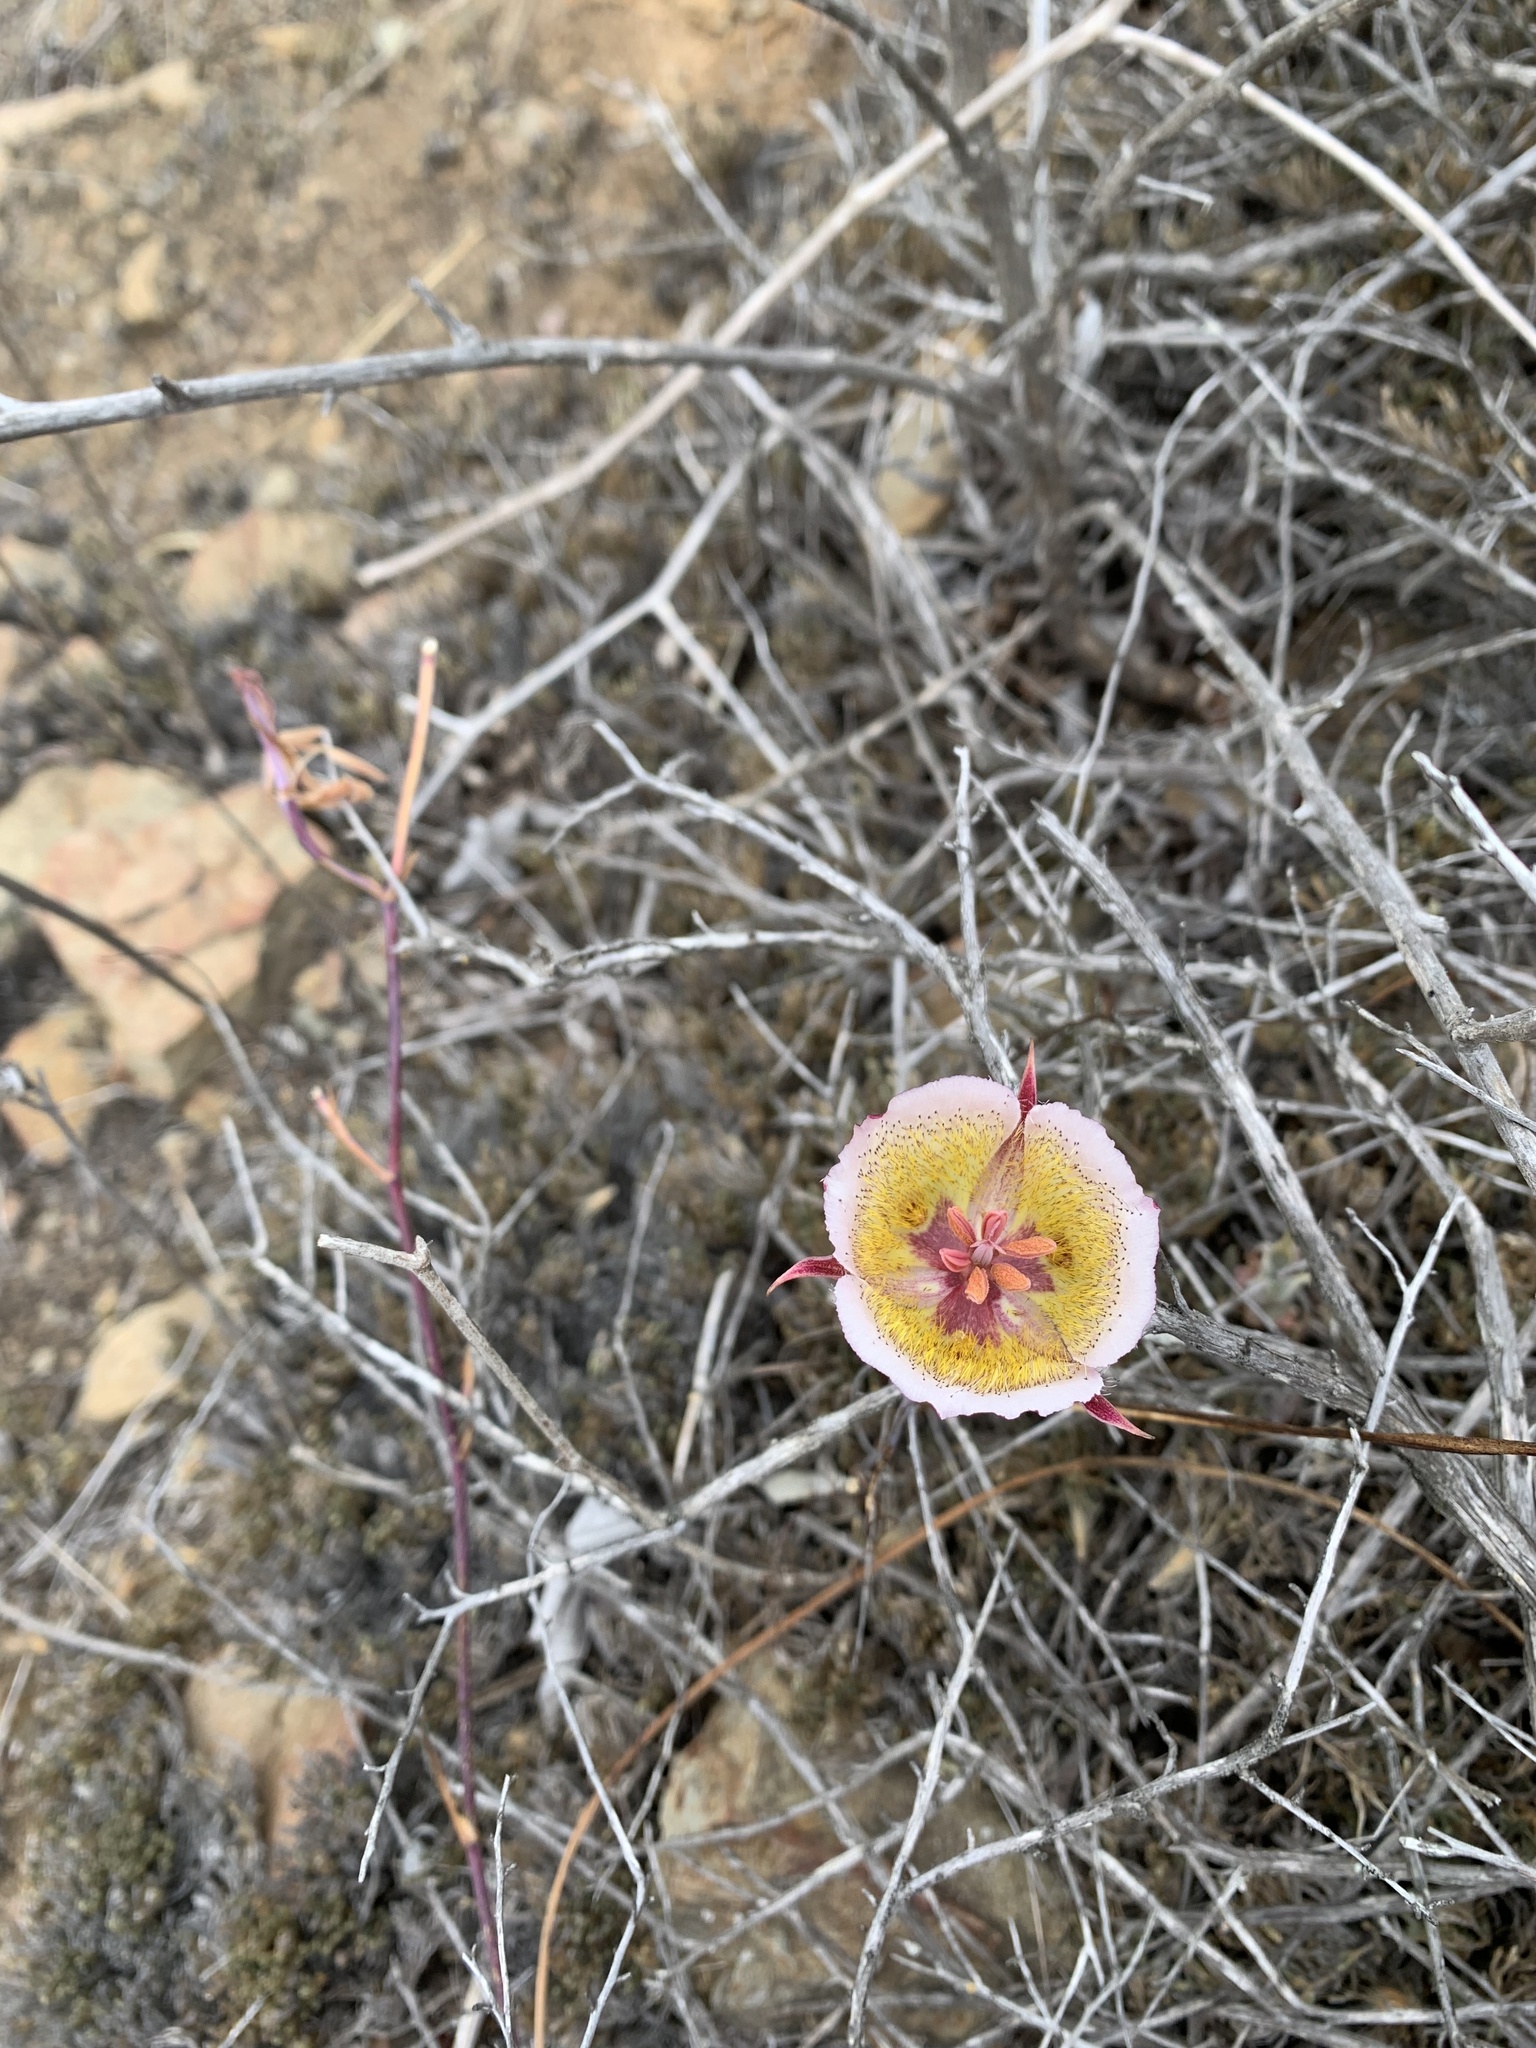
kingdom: Plantae
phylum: Tracheophyta
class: Liliopsida
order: Liliales
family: Liliaceae
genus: Calochortus
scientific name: Calochortus plummerae
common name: Plummer's mariposa-lily
